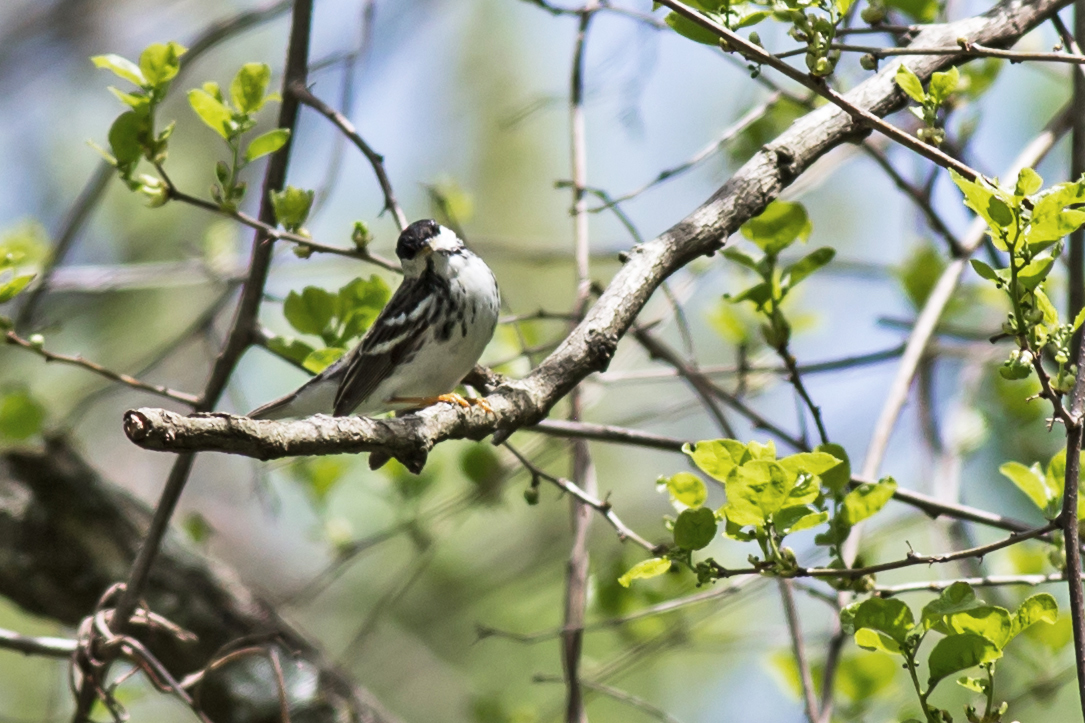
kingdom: Animalia
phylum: Chordata
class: Aves
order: Passeriformes
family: Parulidae
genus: Setophaga
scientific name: Setophaga striata
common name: Blackpoll warbler
